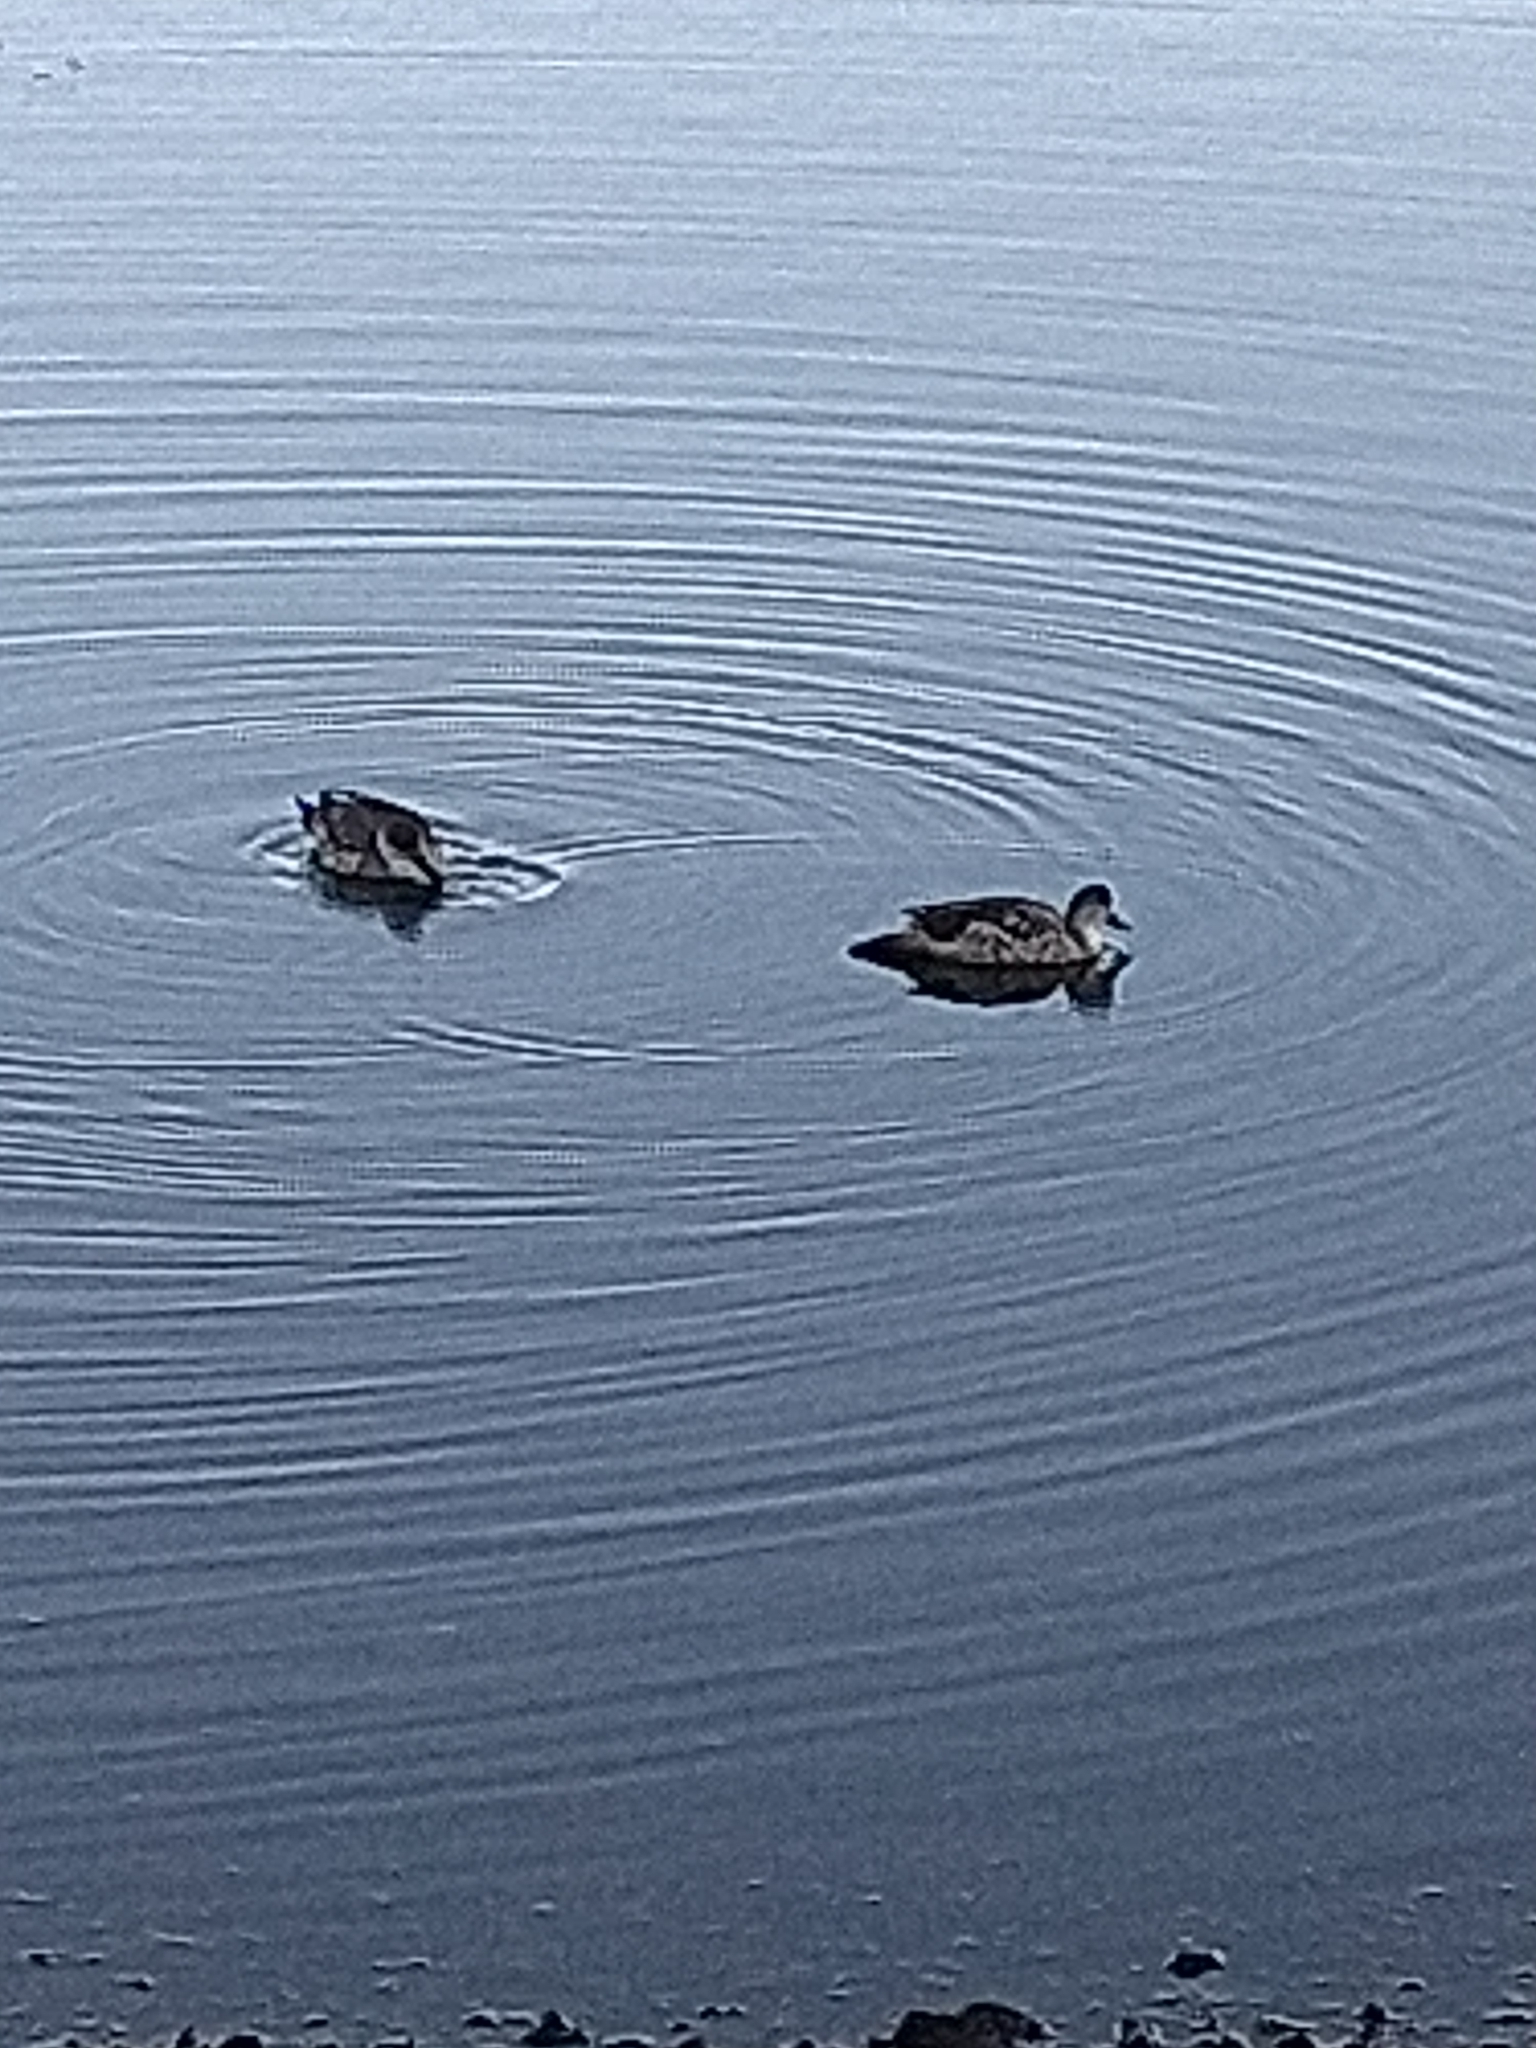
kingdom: Animalia
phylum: Chordata
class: Aves
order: Anseriformes
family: Anatidae
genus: Lophonetta
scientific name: Lophonetta specularioides
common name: Crested duck
